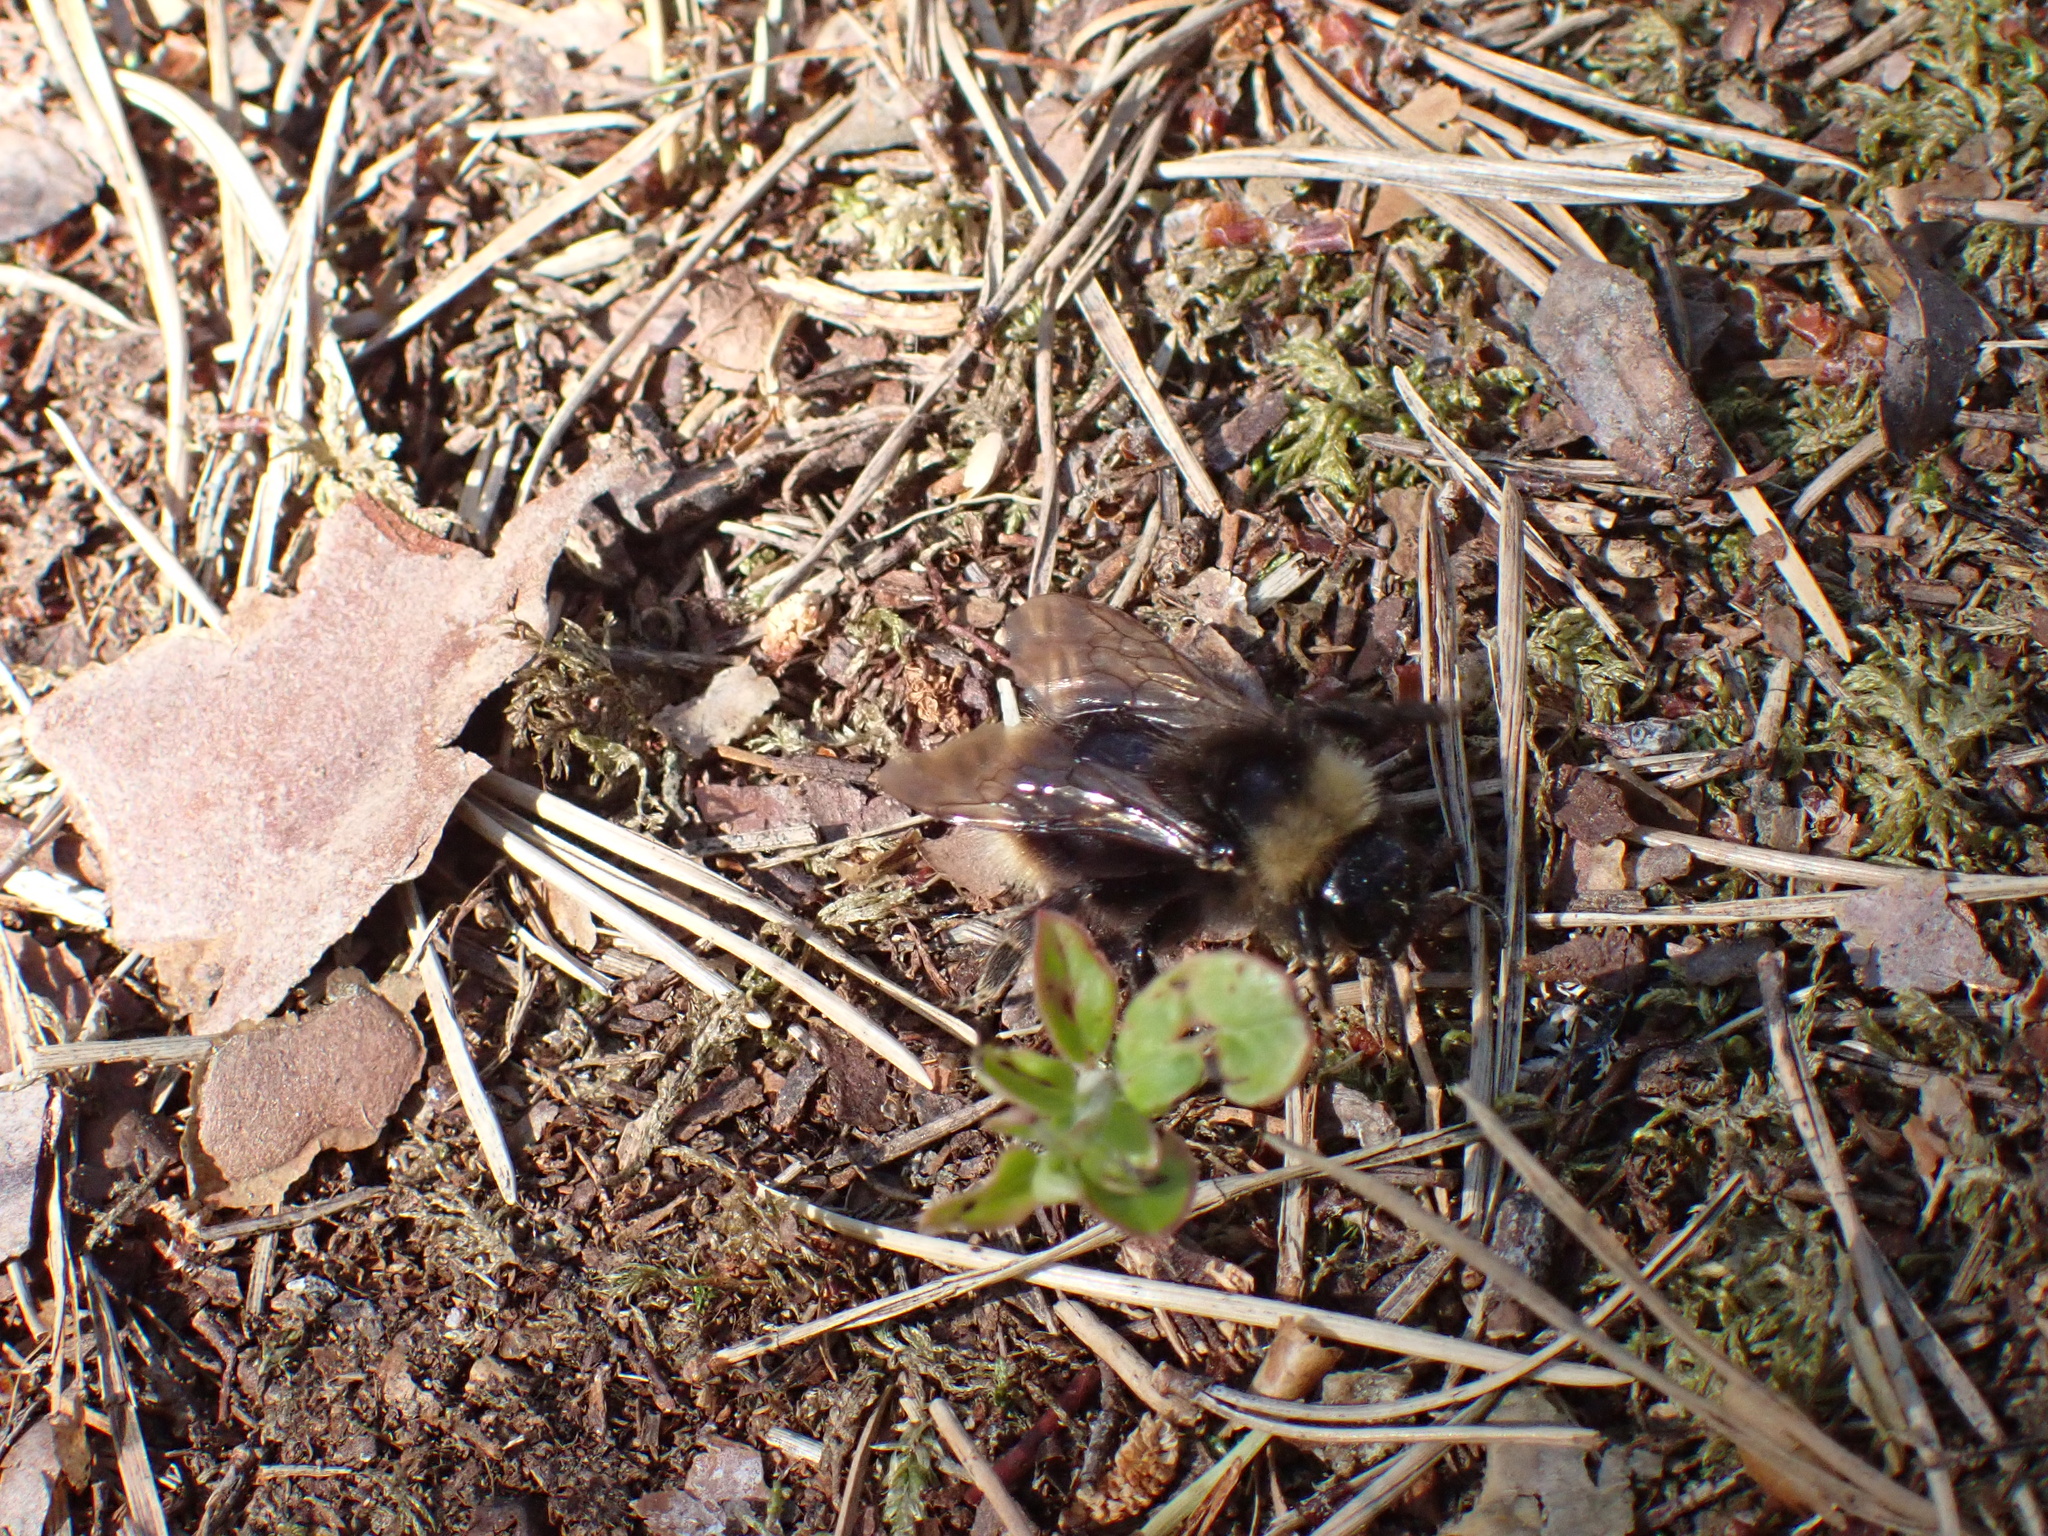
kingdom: Animalia
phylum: Arthropoda
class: Insecta
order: Hymenoptera
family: Apidae
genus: Bombus
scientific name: Bombus pratorum
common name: Early humble-bee
